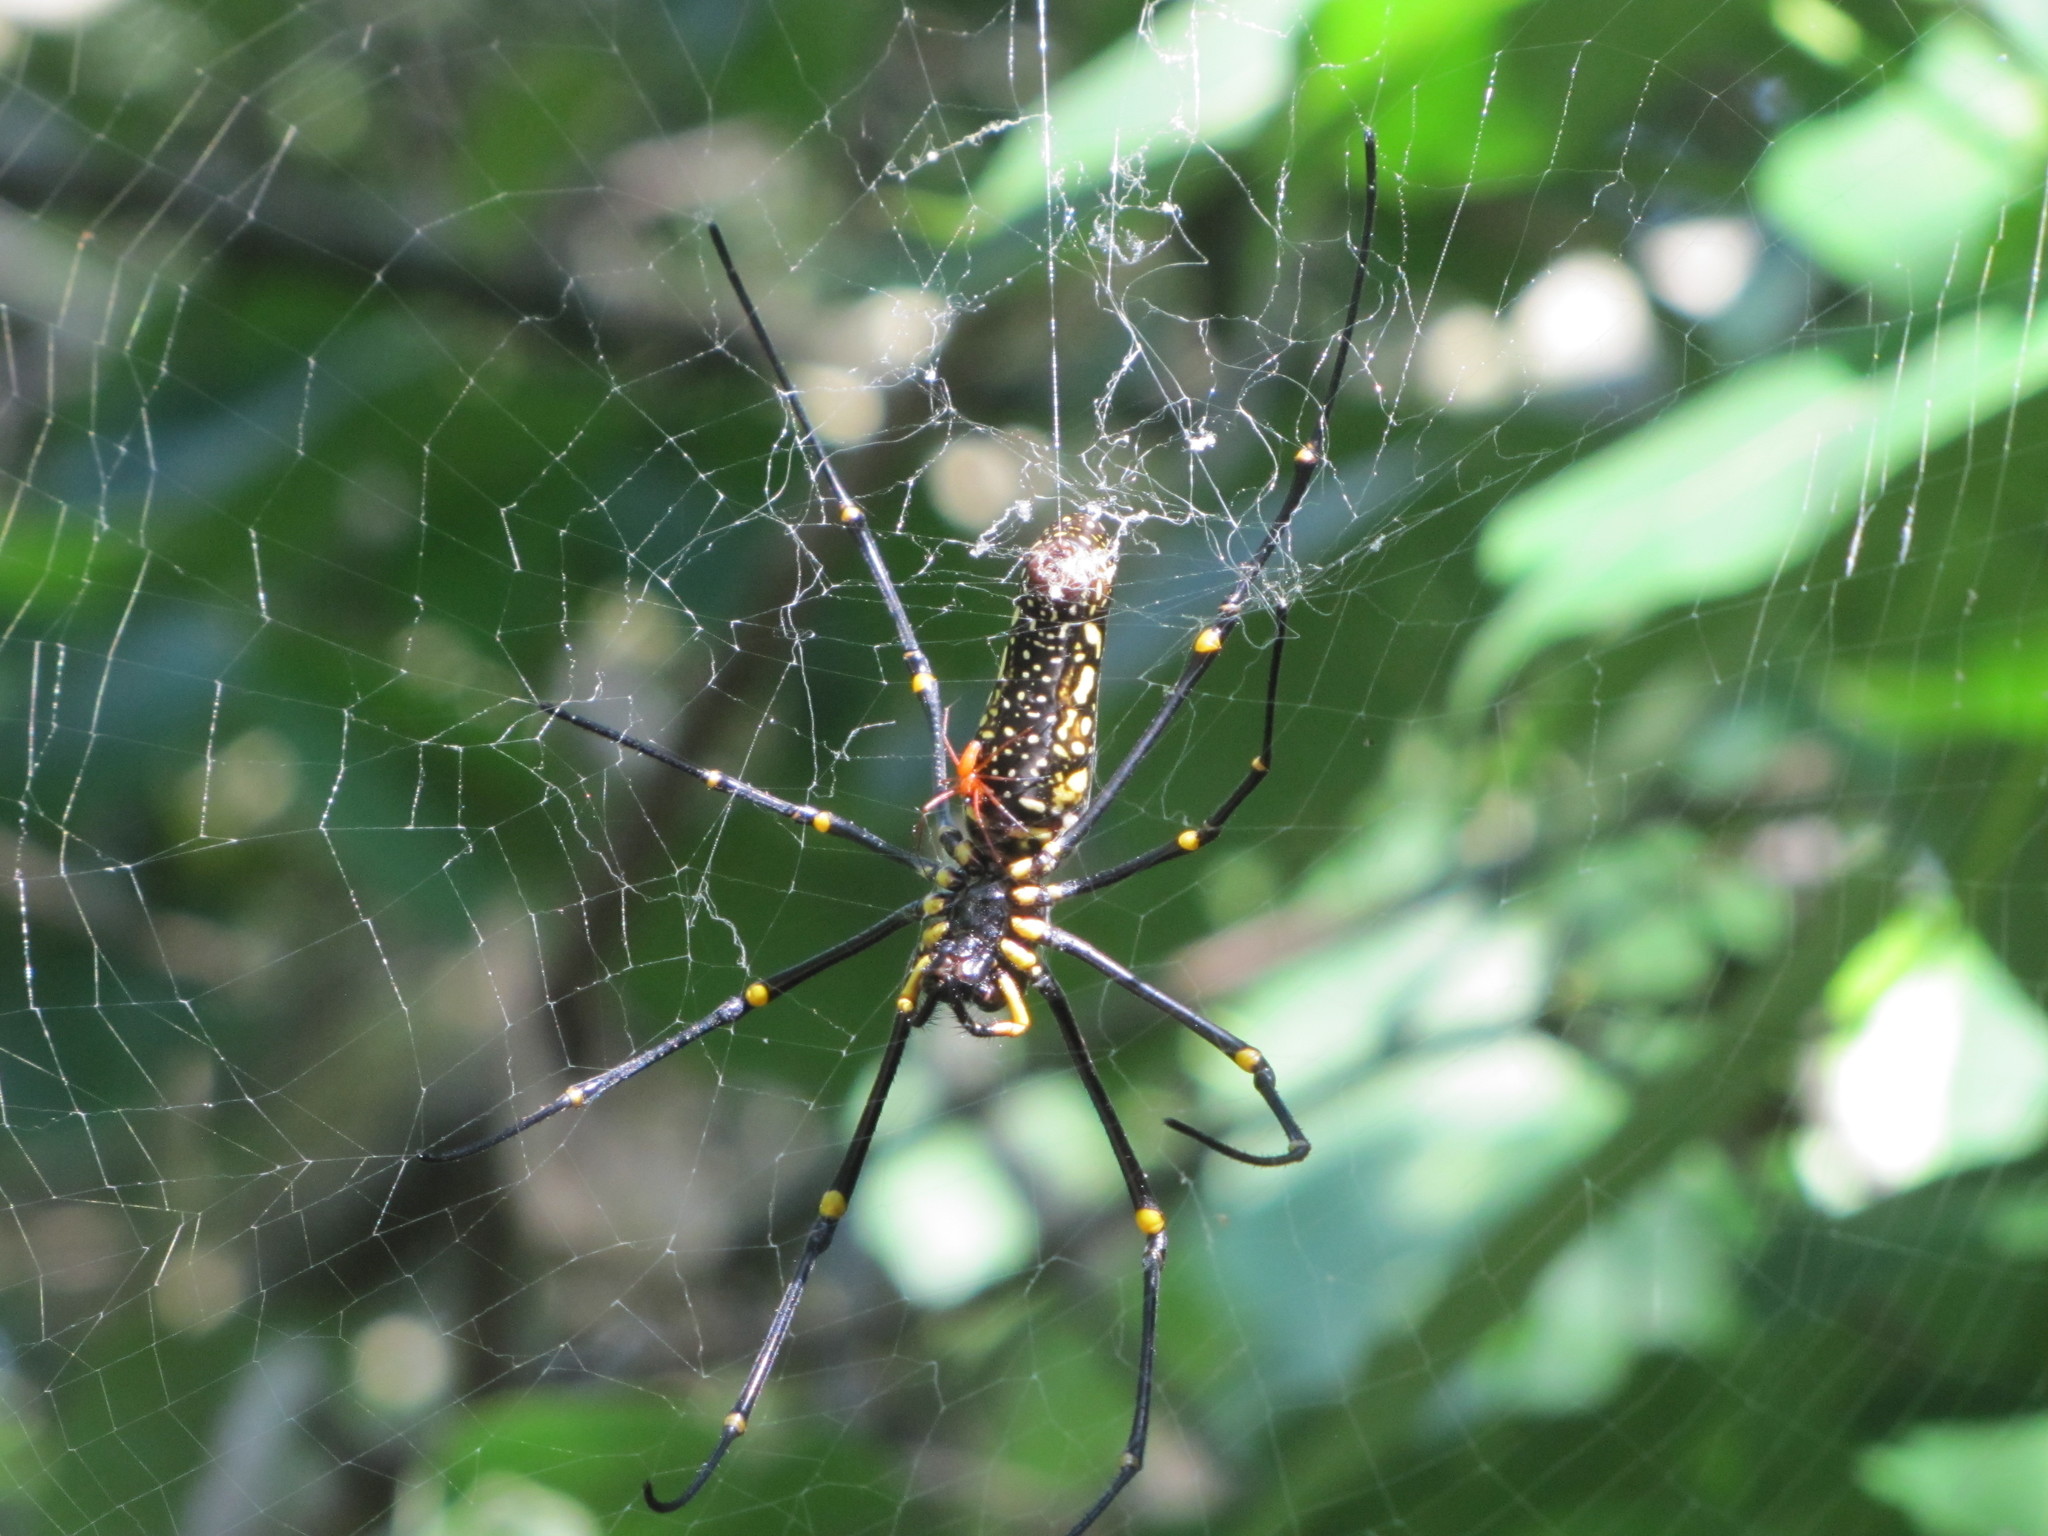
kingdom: Animalia
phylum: Arthropoda
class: Arachnida
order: Araneae
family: Araneidae
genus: Nephila
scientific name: Nephila pilipes
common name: Giant golden orb weaver
